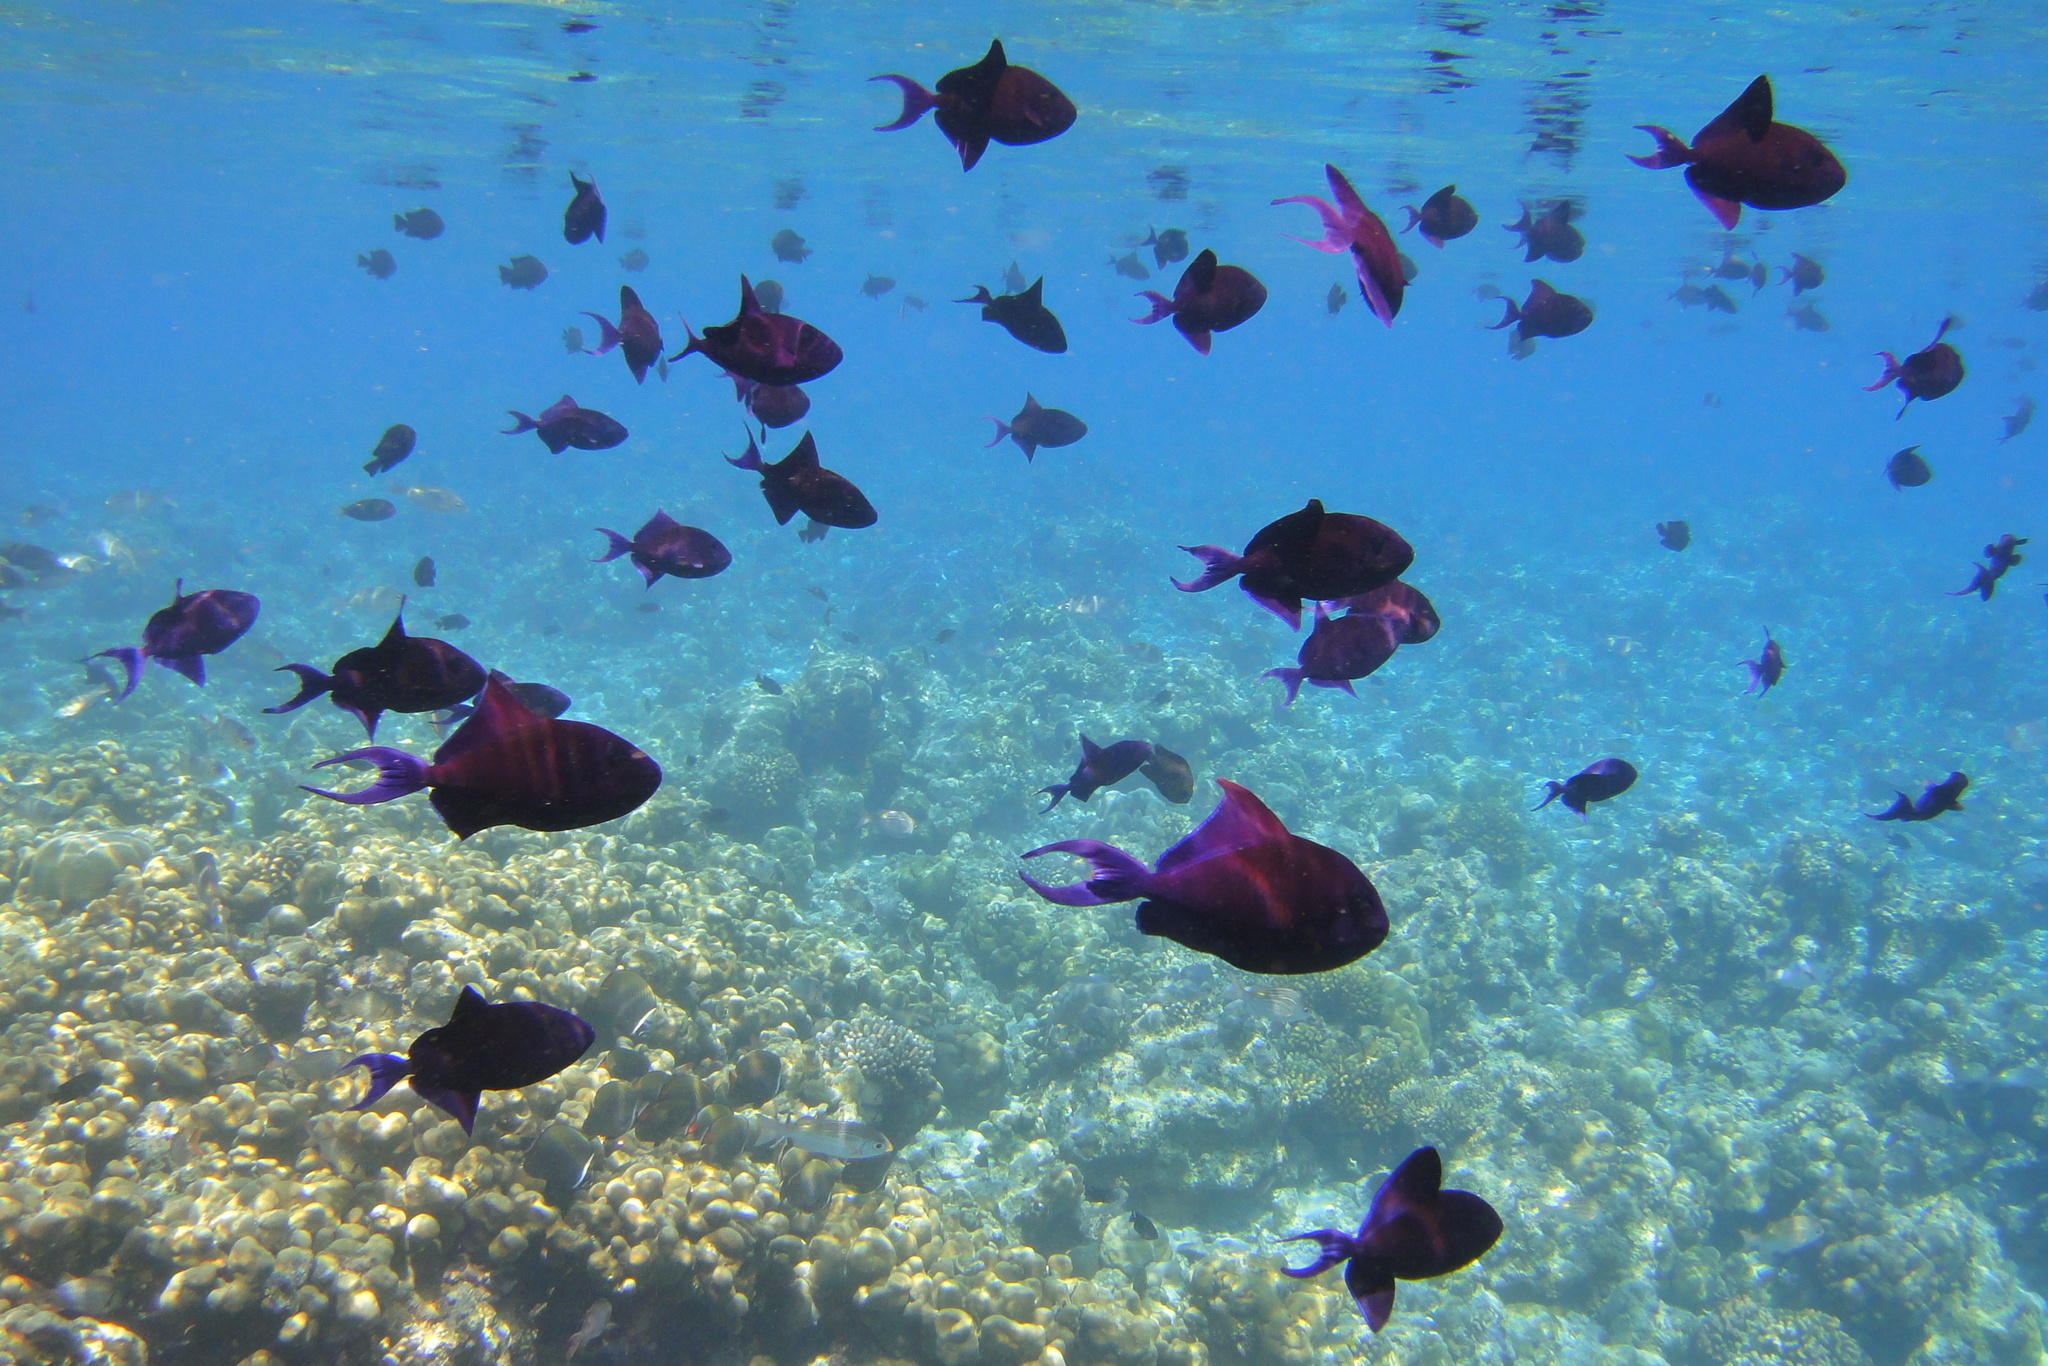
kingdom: Animalia
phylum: Chordata
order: Tetraodontiformes
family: Balistidae
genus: Odonus
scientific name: Odonus niger
